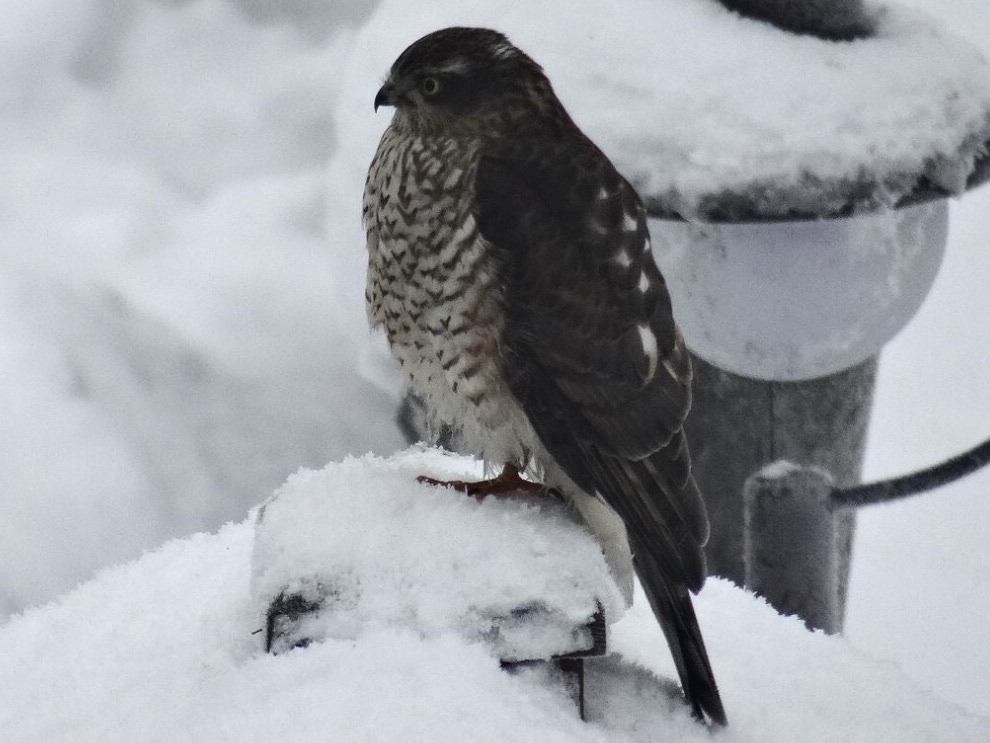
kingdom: Animalia
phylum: Chordata
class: Aves
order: Accipitriformes
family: Accipitridae
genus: Accipiter
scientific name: Accipiter nisus
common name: Eurasian sparrowhawk
